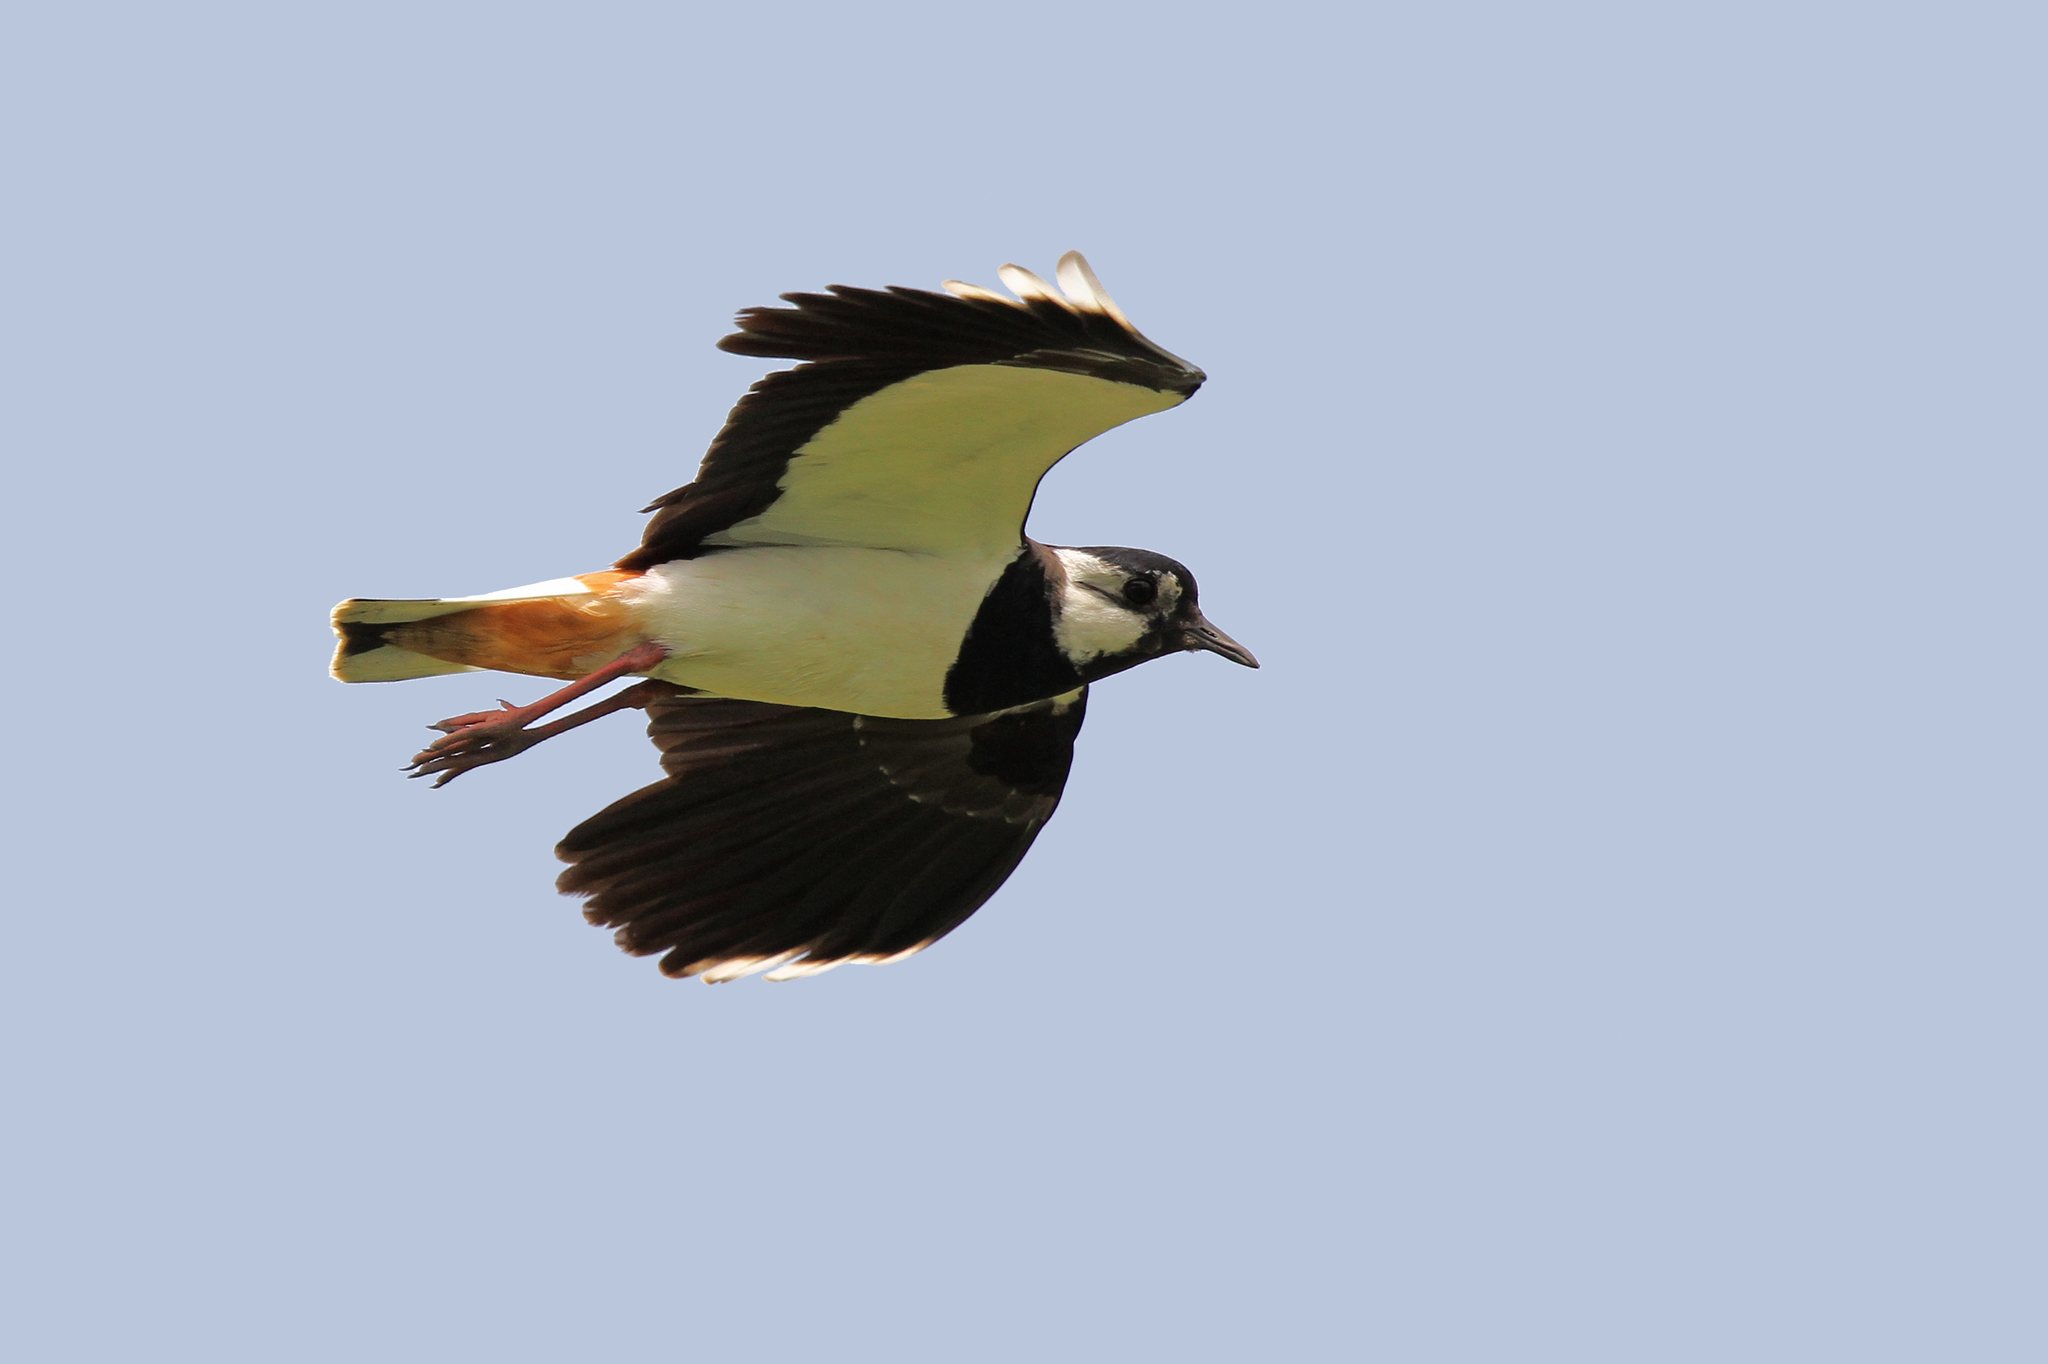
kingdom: Animalia
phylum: Chordata
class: Aves
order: Charadriiformes
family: Charadriidae
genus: Vanellus
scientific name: Vanellus vanellus
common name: Northern lapwing
